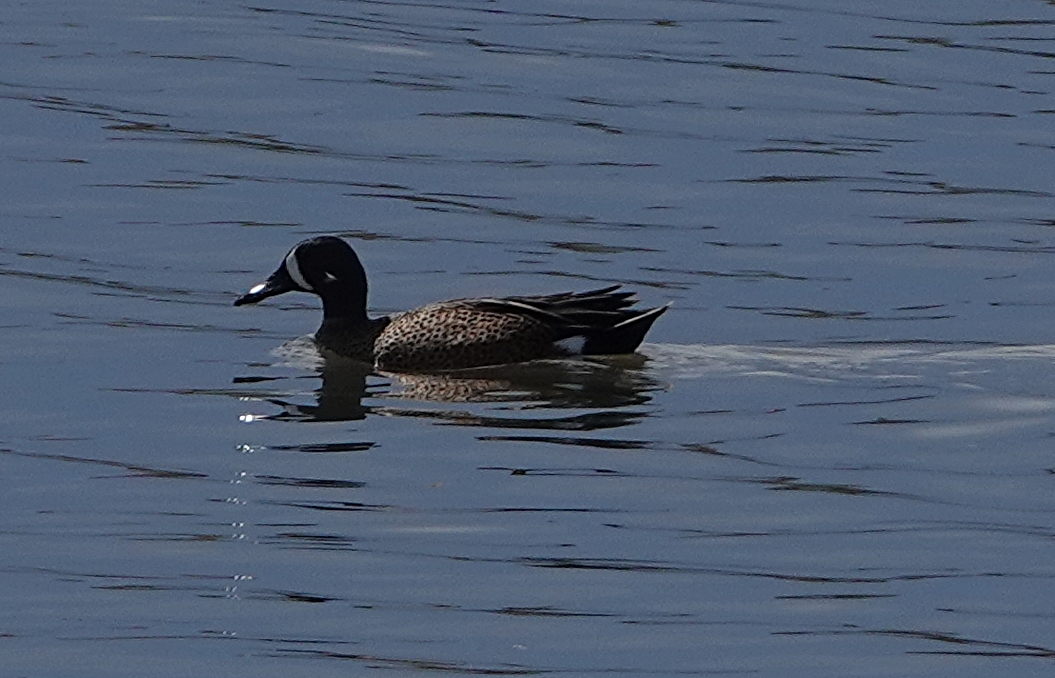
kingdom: Animalia
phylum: Chordata
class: Aves
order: Anseriformes
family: Anatidae
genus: Spatula
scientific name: Spatula discors
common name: Blue-winged teal
